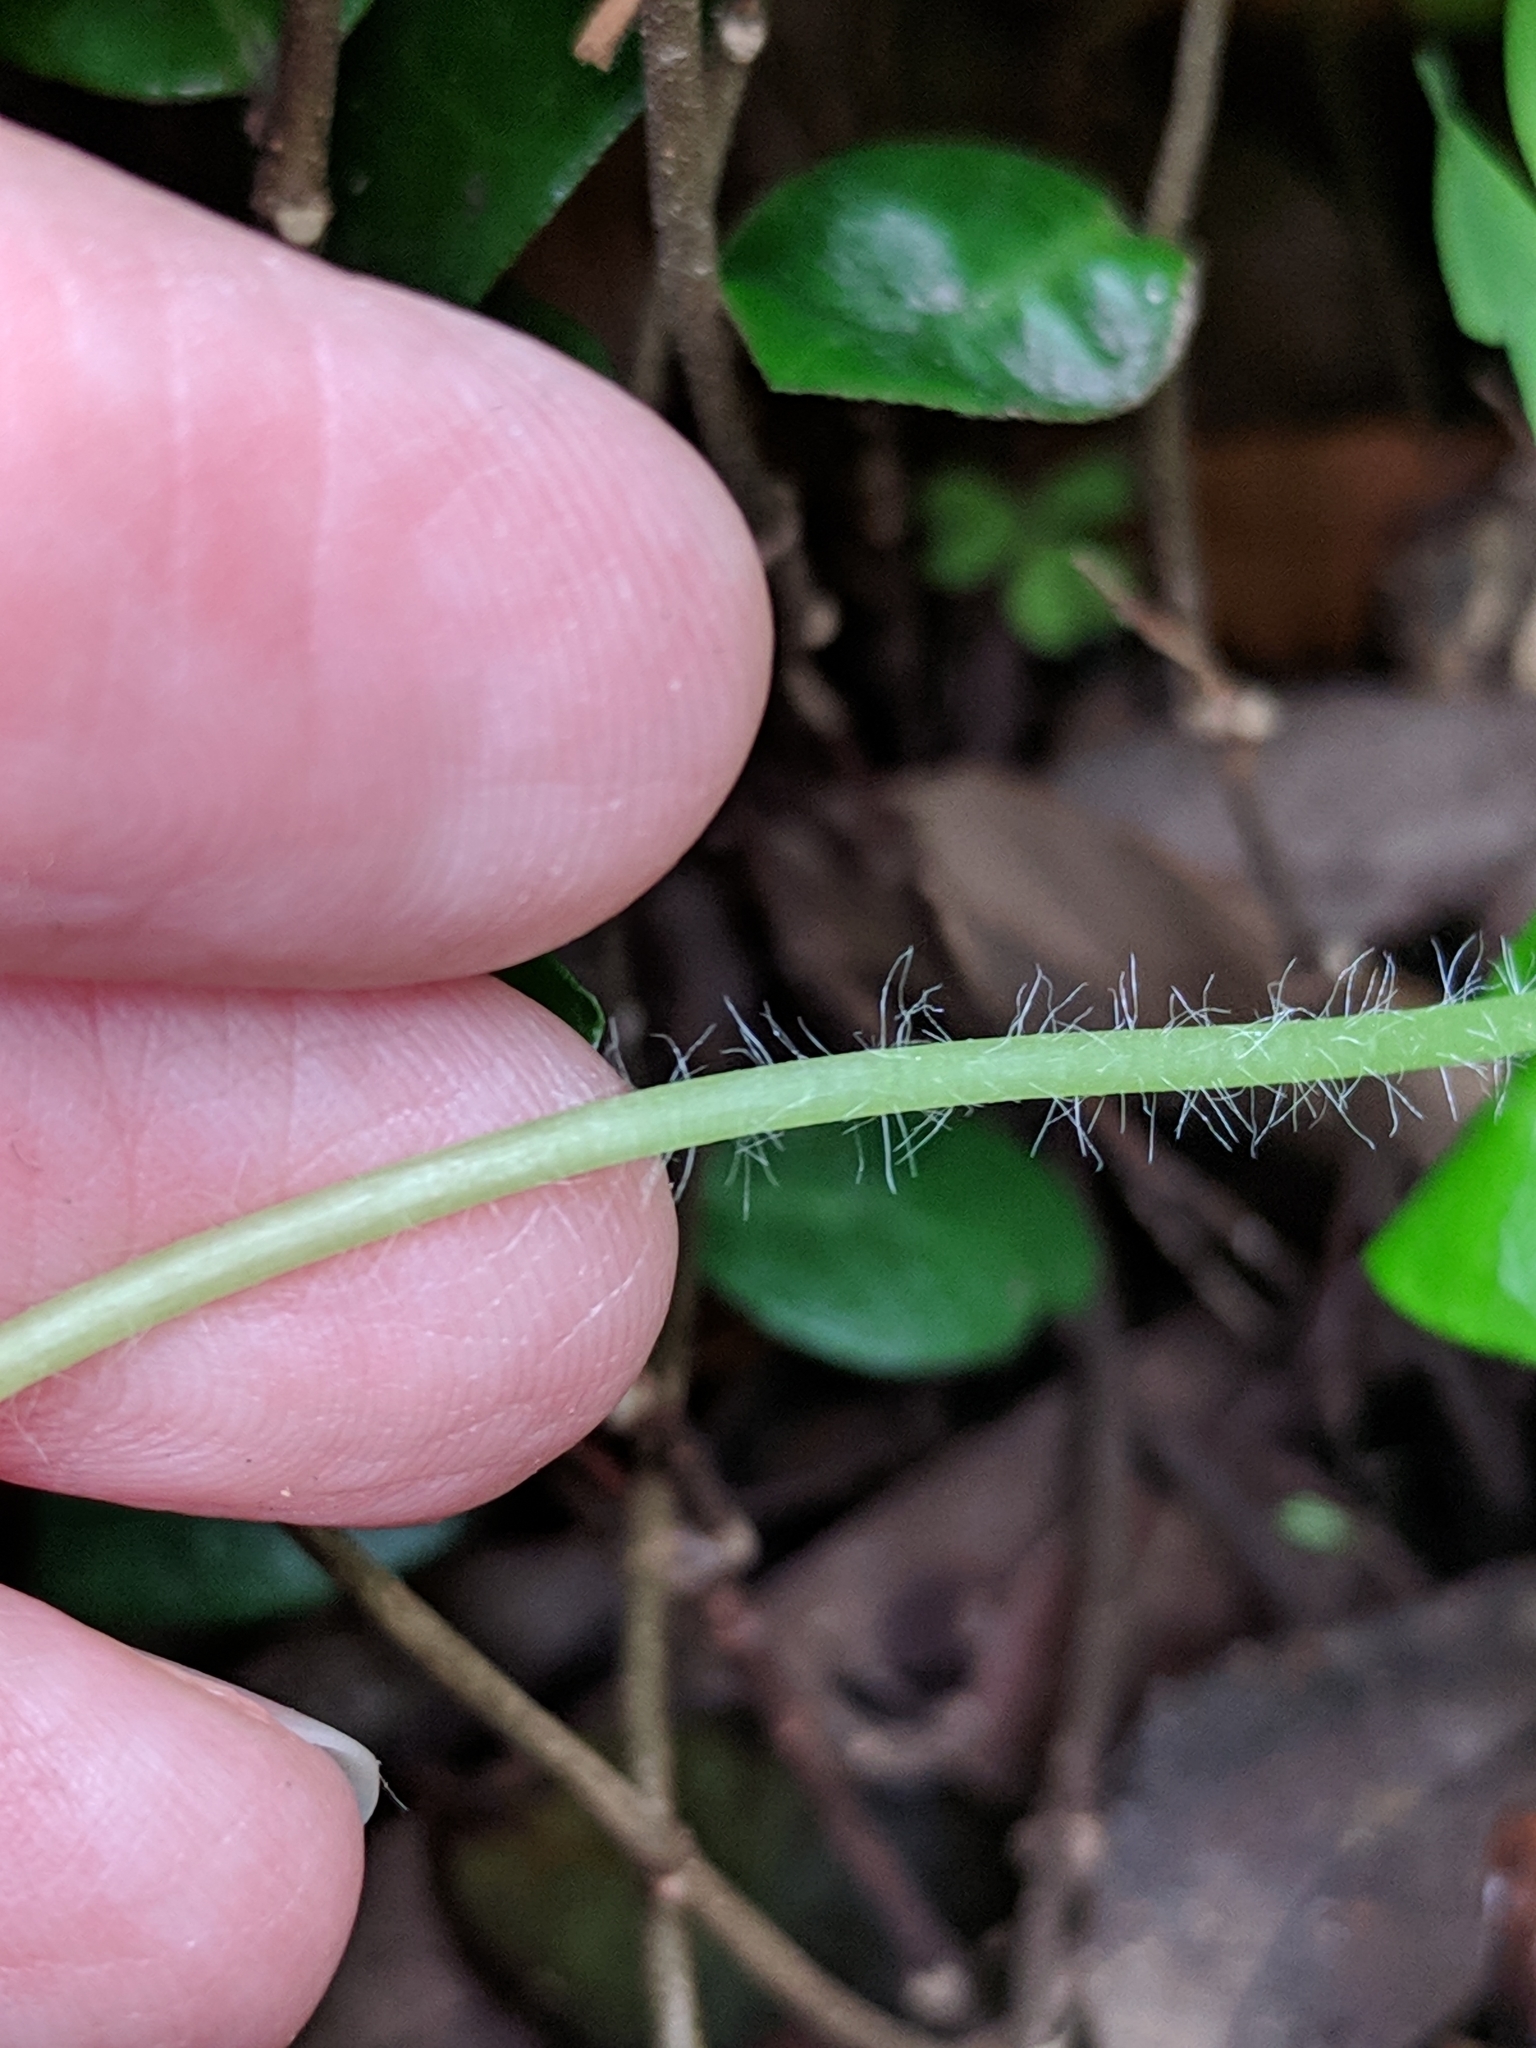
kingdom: Plantae
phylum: Tracheophyta
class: Magnoliopsida
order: Oxalidales
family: Oxalidaceae
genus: Oxalis
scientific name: Oxalis debilis
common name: Large-flowered pink-sorrel
